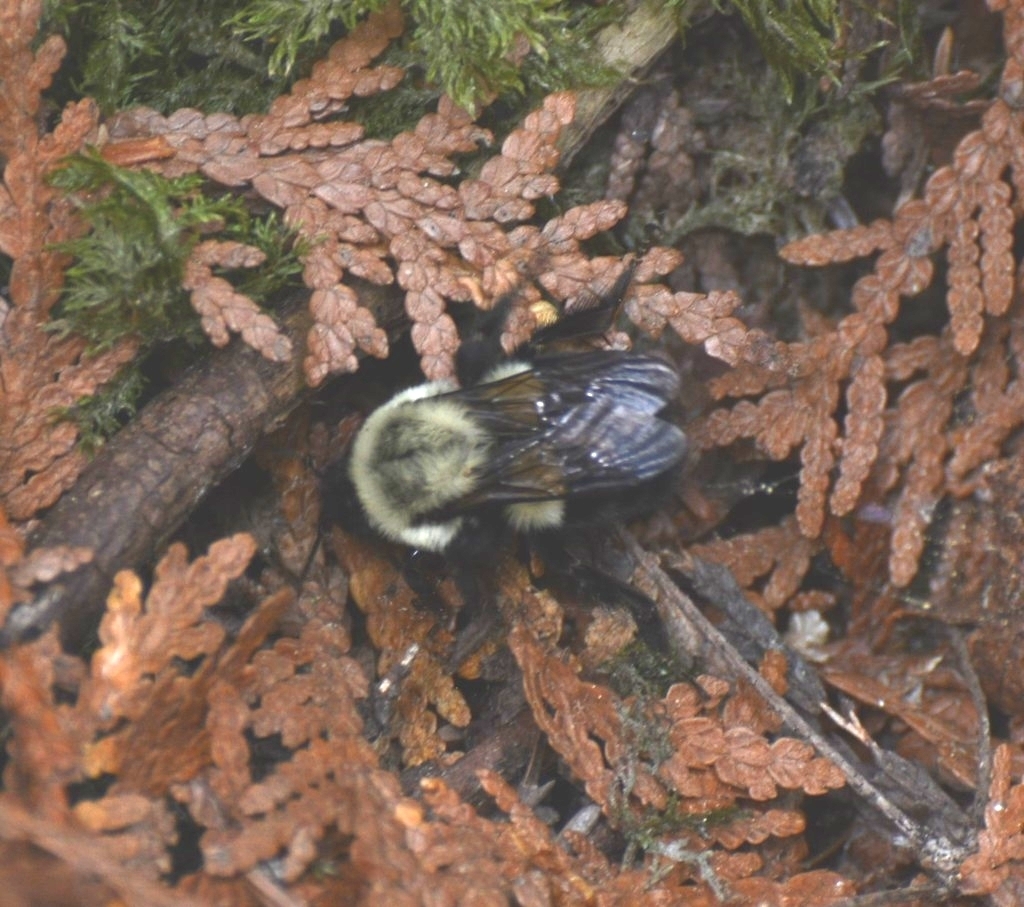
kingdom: Animalia
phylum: Arthropoda
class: Insecta
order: Hymenoptera
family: Apidae
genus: Bombus
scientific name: Bombus impatiens
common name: Common eastern bumble bee
